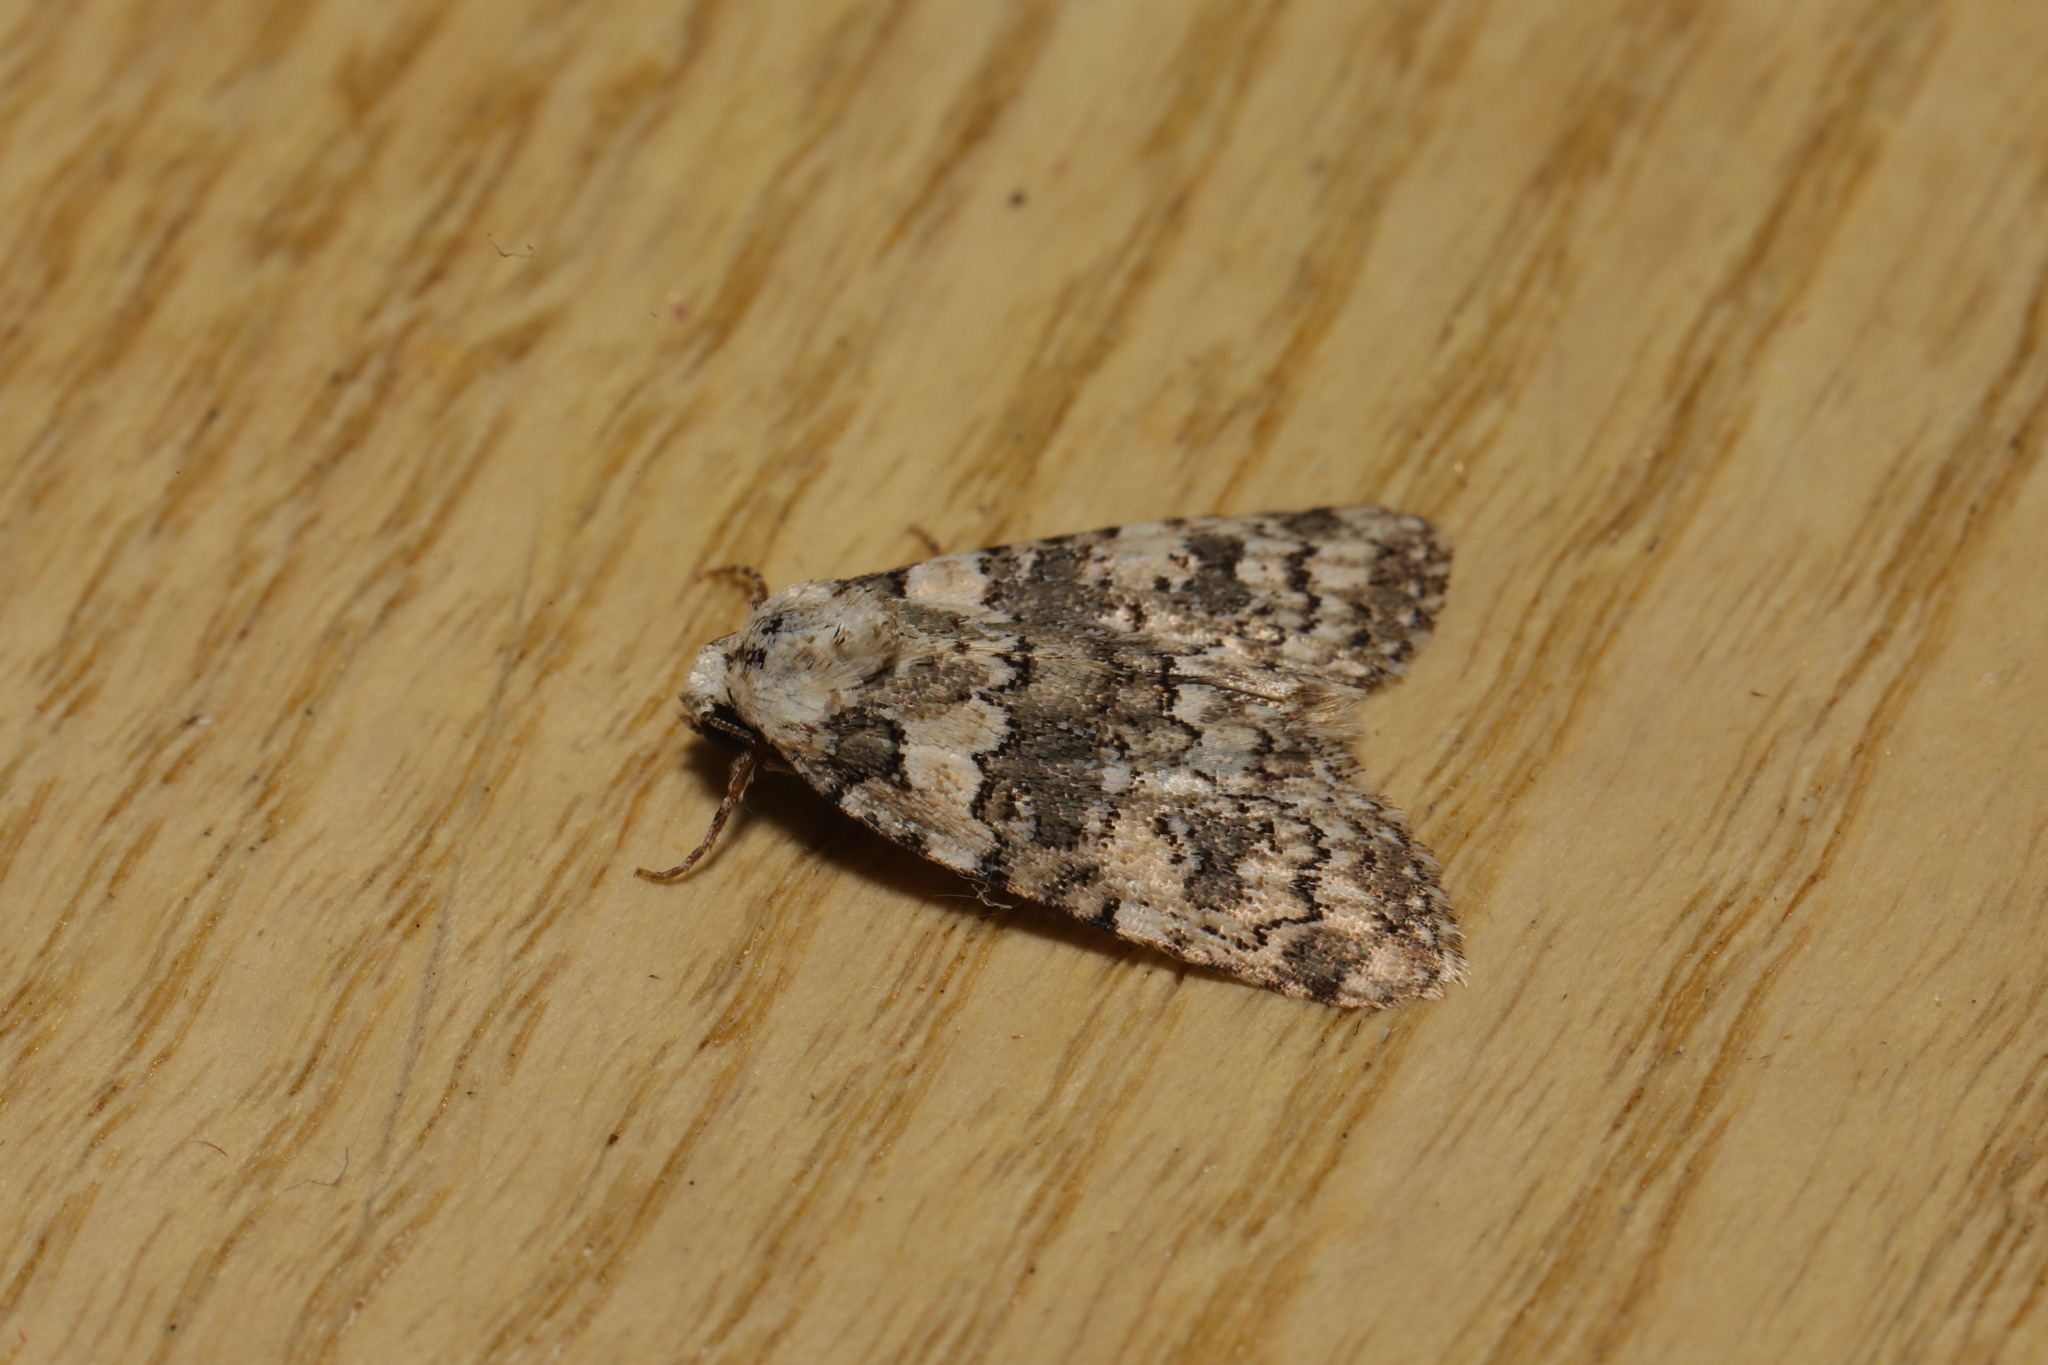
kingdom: Animalia
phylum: Arthropoda
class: Insecta
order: Lepidoptera
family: Noctuidae
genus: Bryophila
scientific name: Bryophila domestica
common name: Marbled beauty
